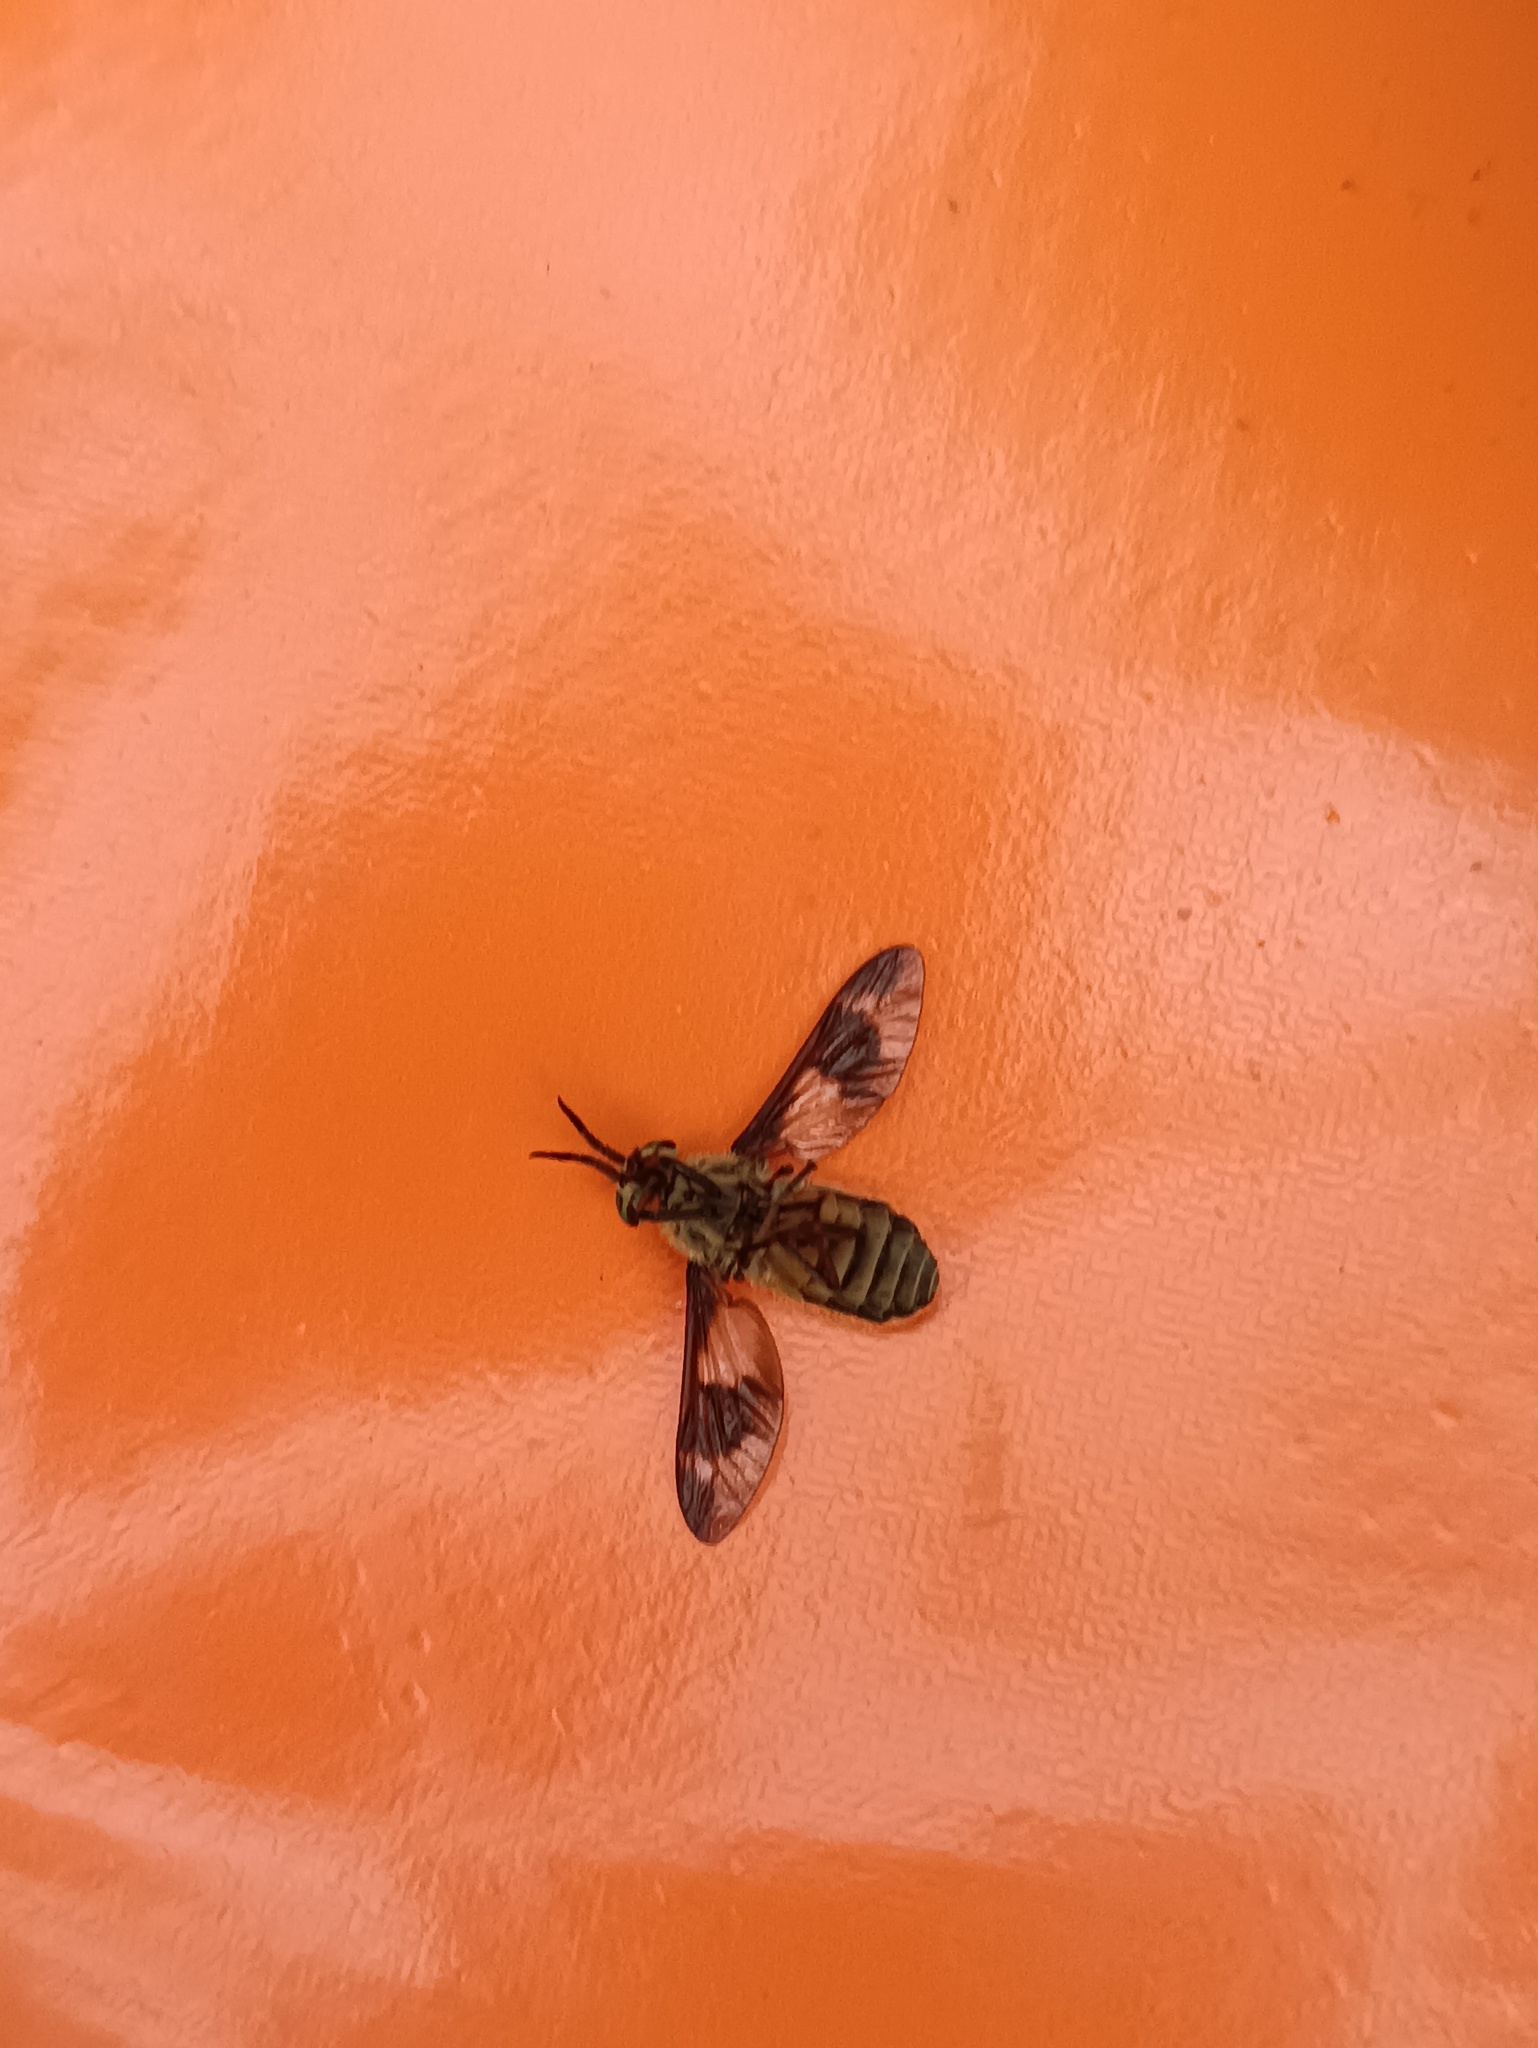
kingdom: Animalia
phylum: Arthropoda
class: Insecta
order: Diptera
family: Tabanidae
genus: Chrysops
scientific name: Chrysops relictus
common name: Twin-lobed deerfly
